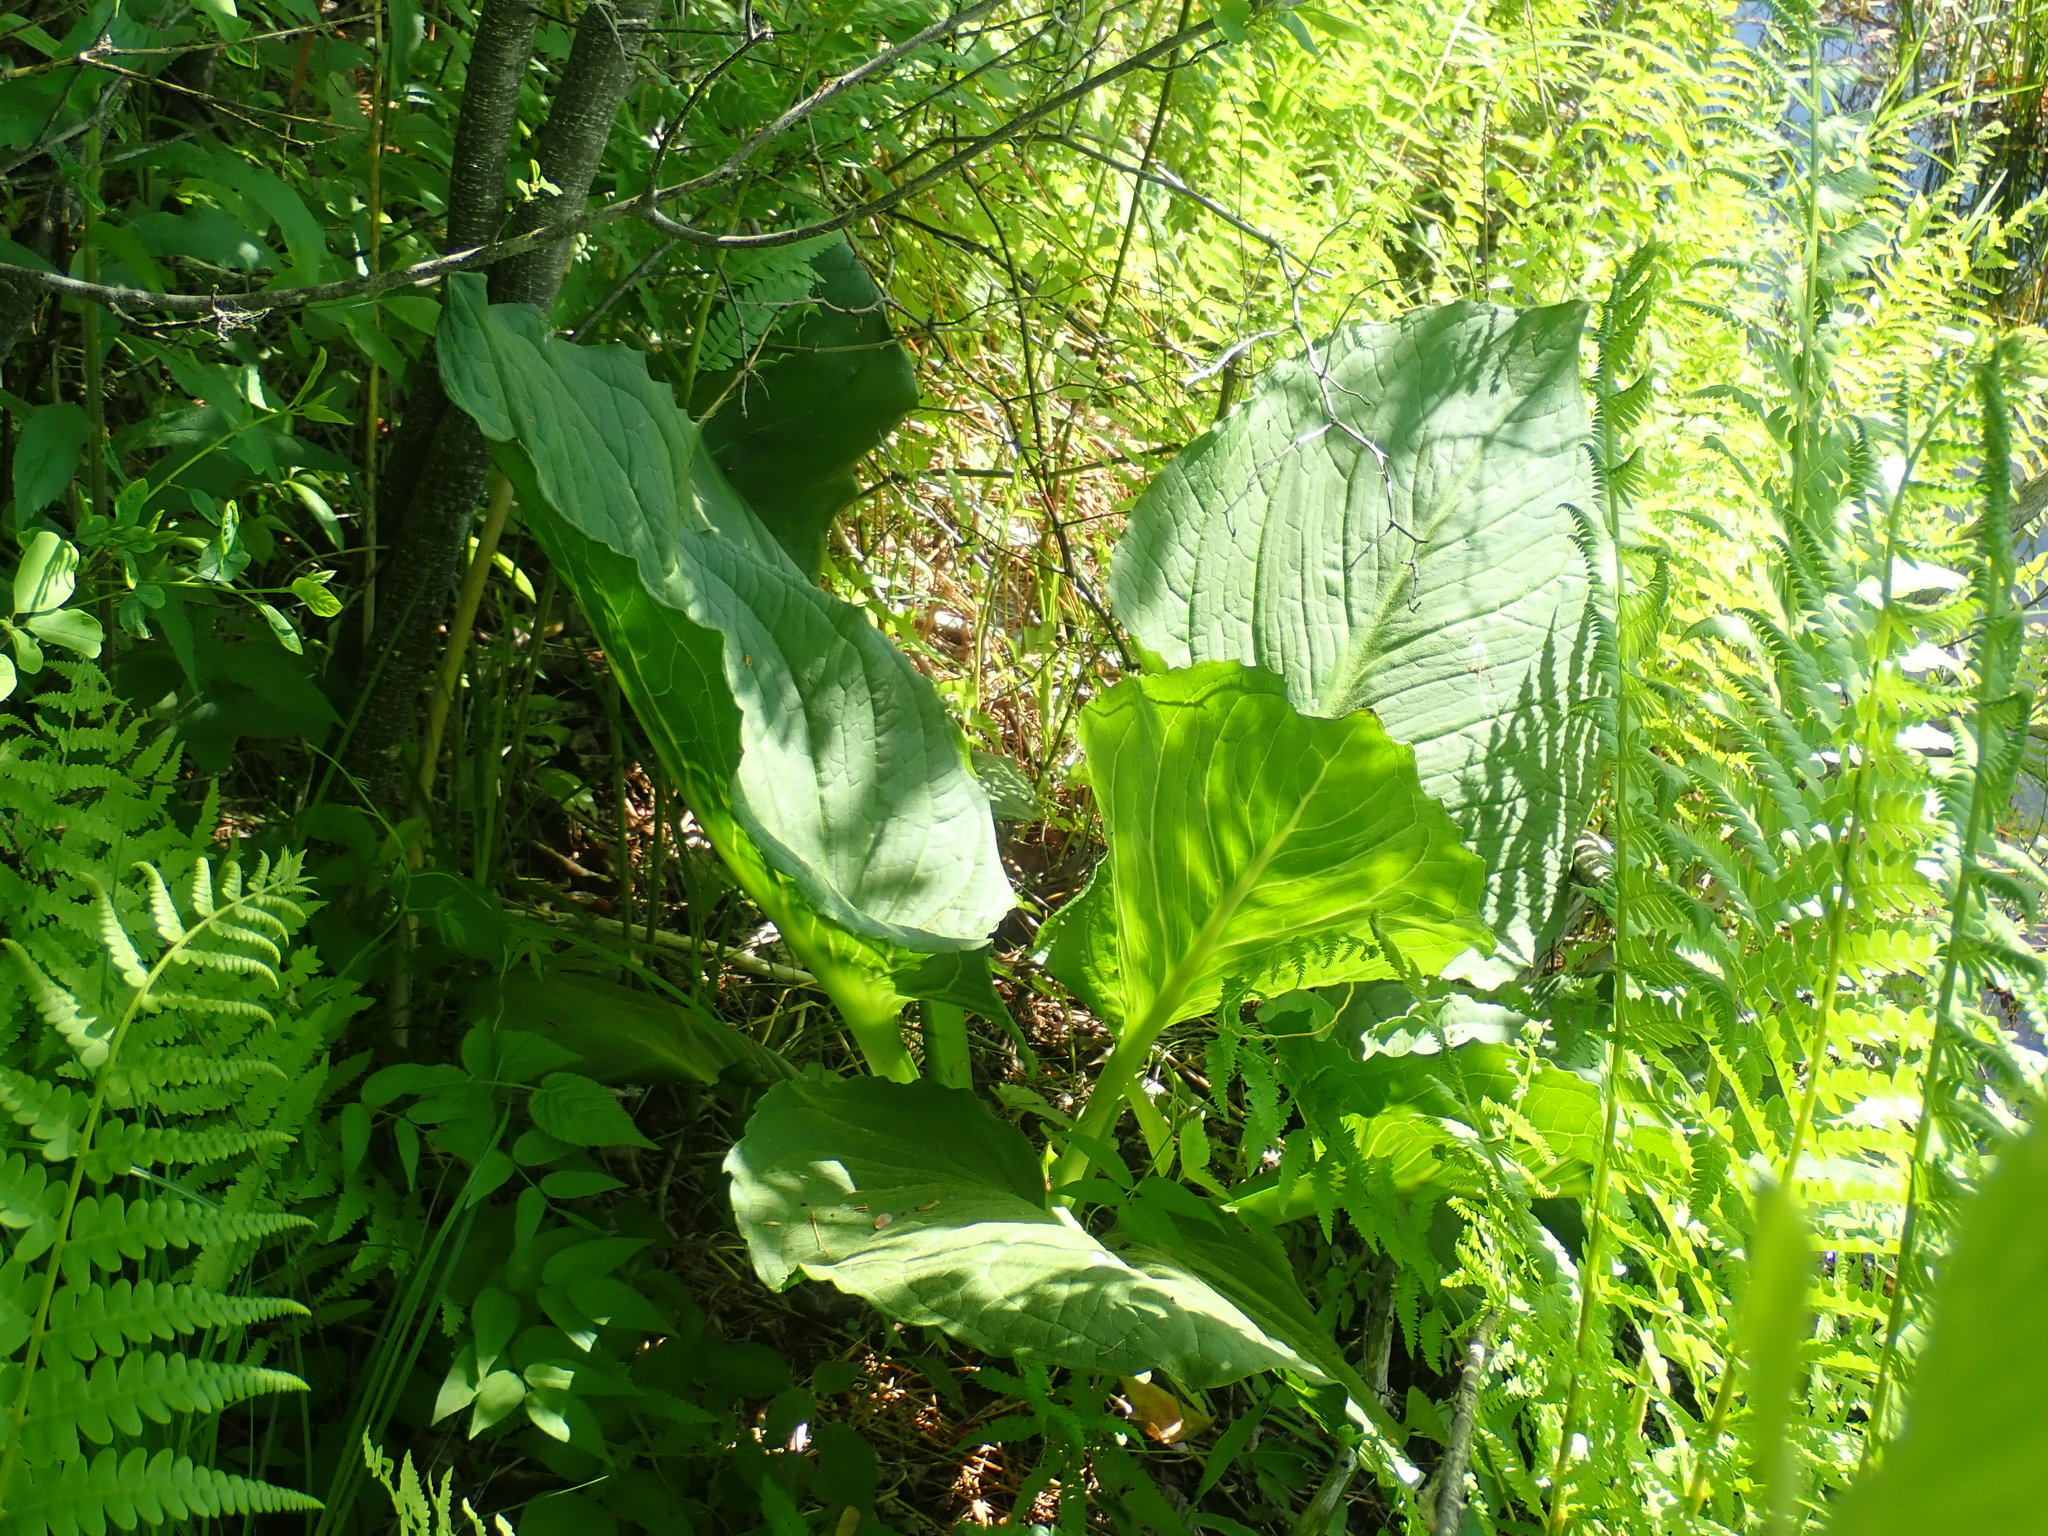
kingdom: Plantae
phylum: Tracheophyta
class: Liliopsida
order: Alismatales
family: Araceae
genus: Symplocarpus
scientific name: Symplocarpus foetidus
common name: Eastern skunk cabbage
